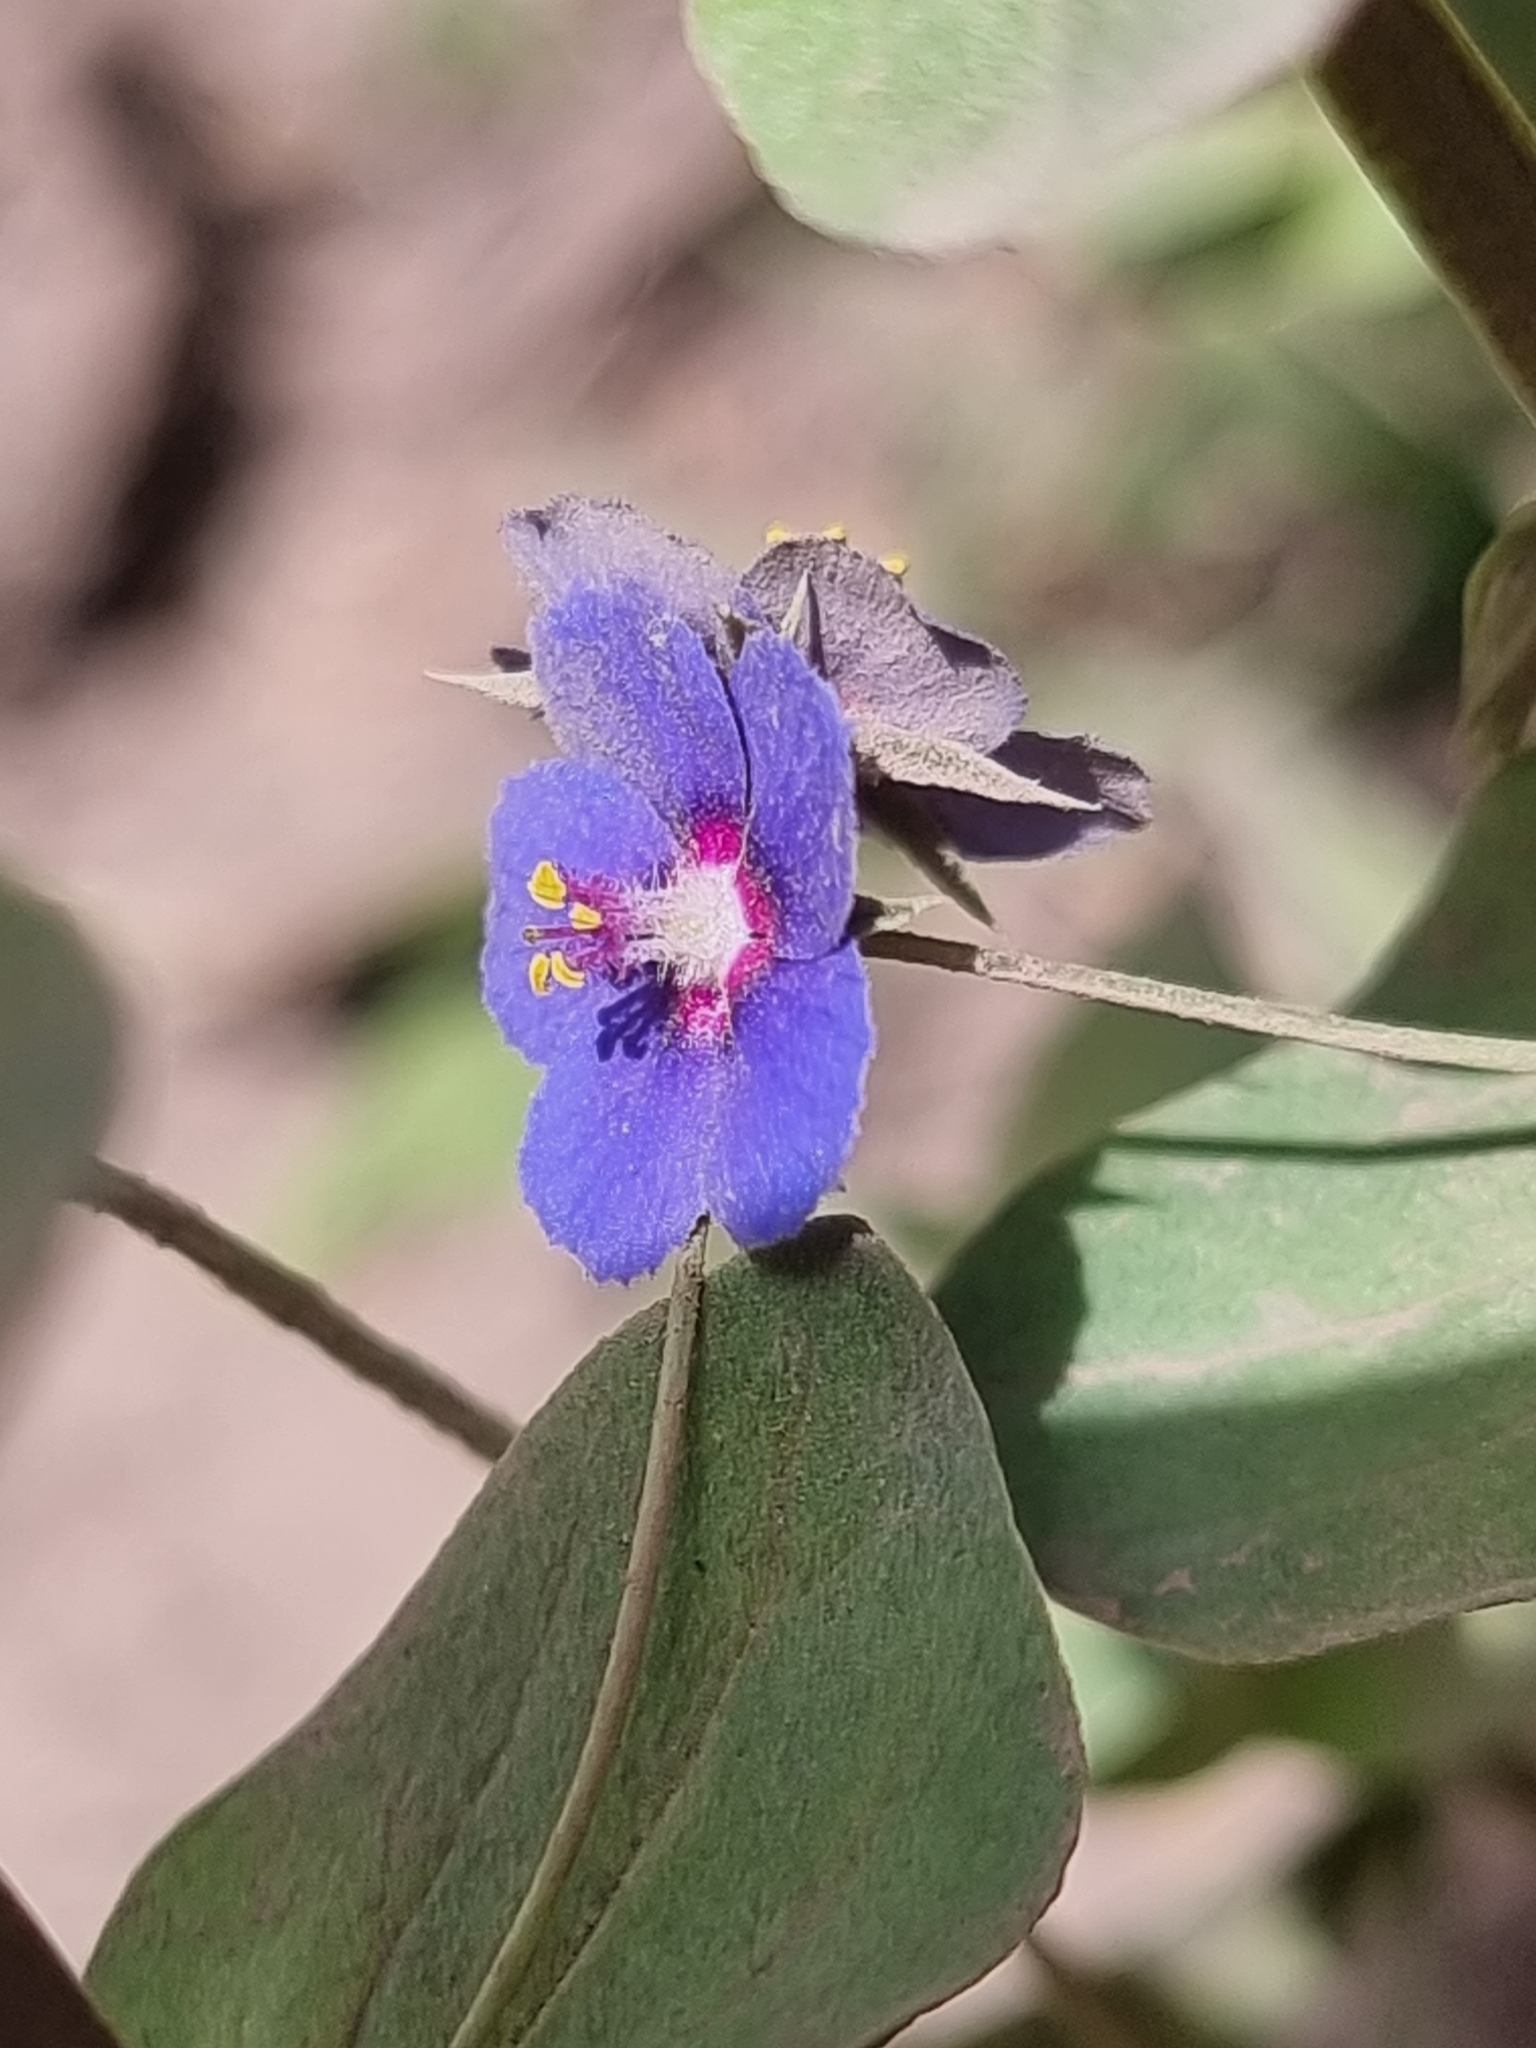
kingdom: Plantae
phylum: Tracheophyta
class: Magnoliopsida
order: Ericales
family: Primulaceae
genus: Lysimachia
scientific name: Lysimachia loeflingii
